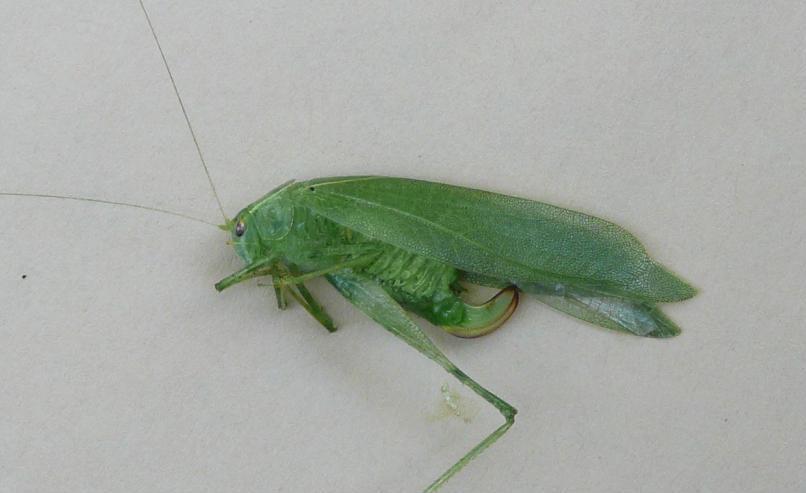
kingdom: Animalia
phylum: Arthropoda
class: Insecta
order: Orthoptera
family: Tettigoniidae
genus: Montezumina
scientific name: Montezumina modesta
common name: Modest katydid
